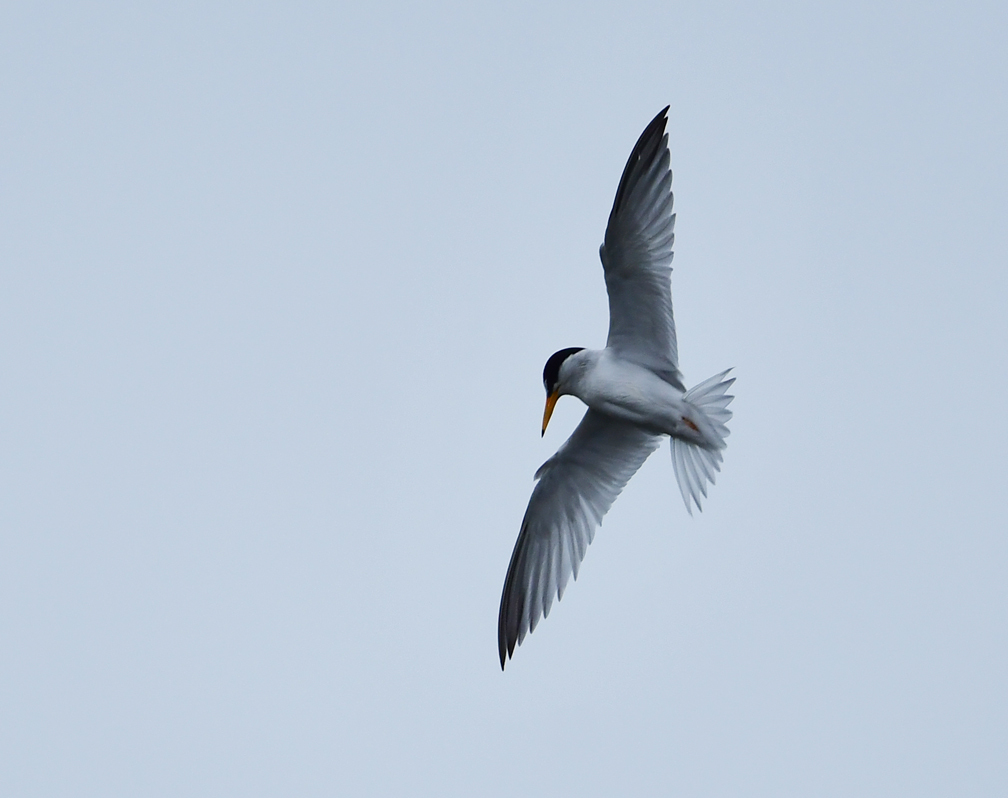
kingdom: Animalia
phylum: Chordata
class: Aves
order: Charadriiformes
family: Laridae
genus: Sternula
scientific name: Sternula antillarum
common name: Least tern
